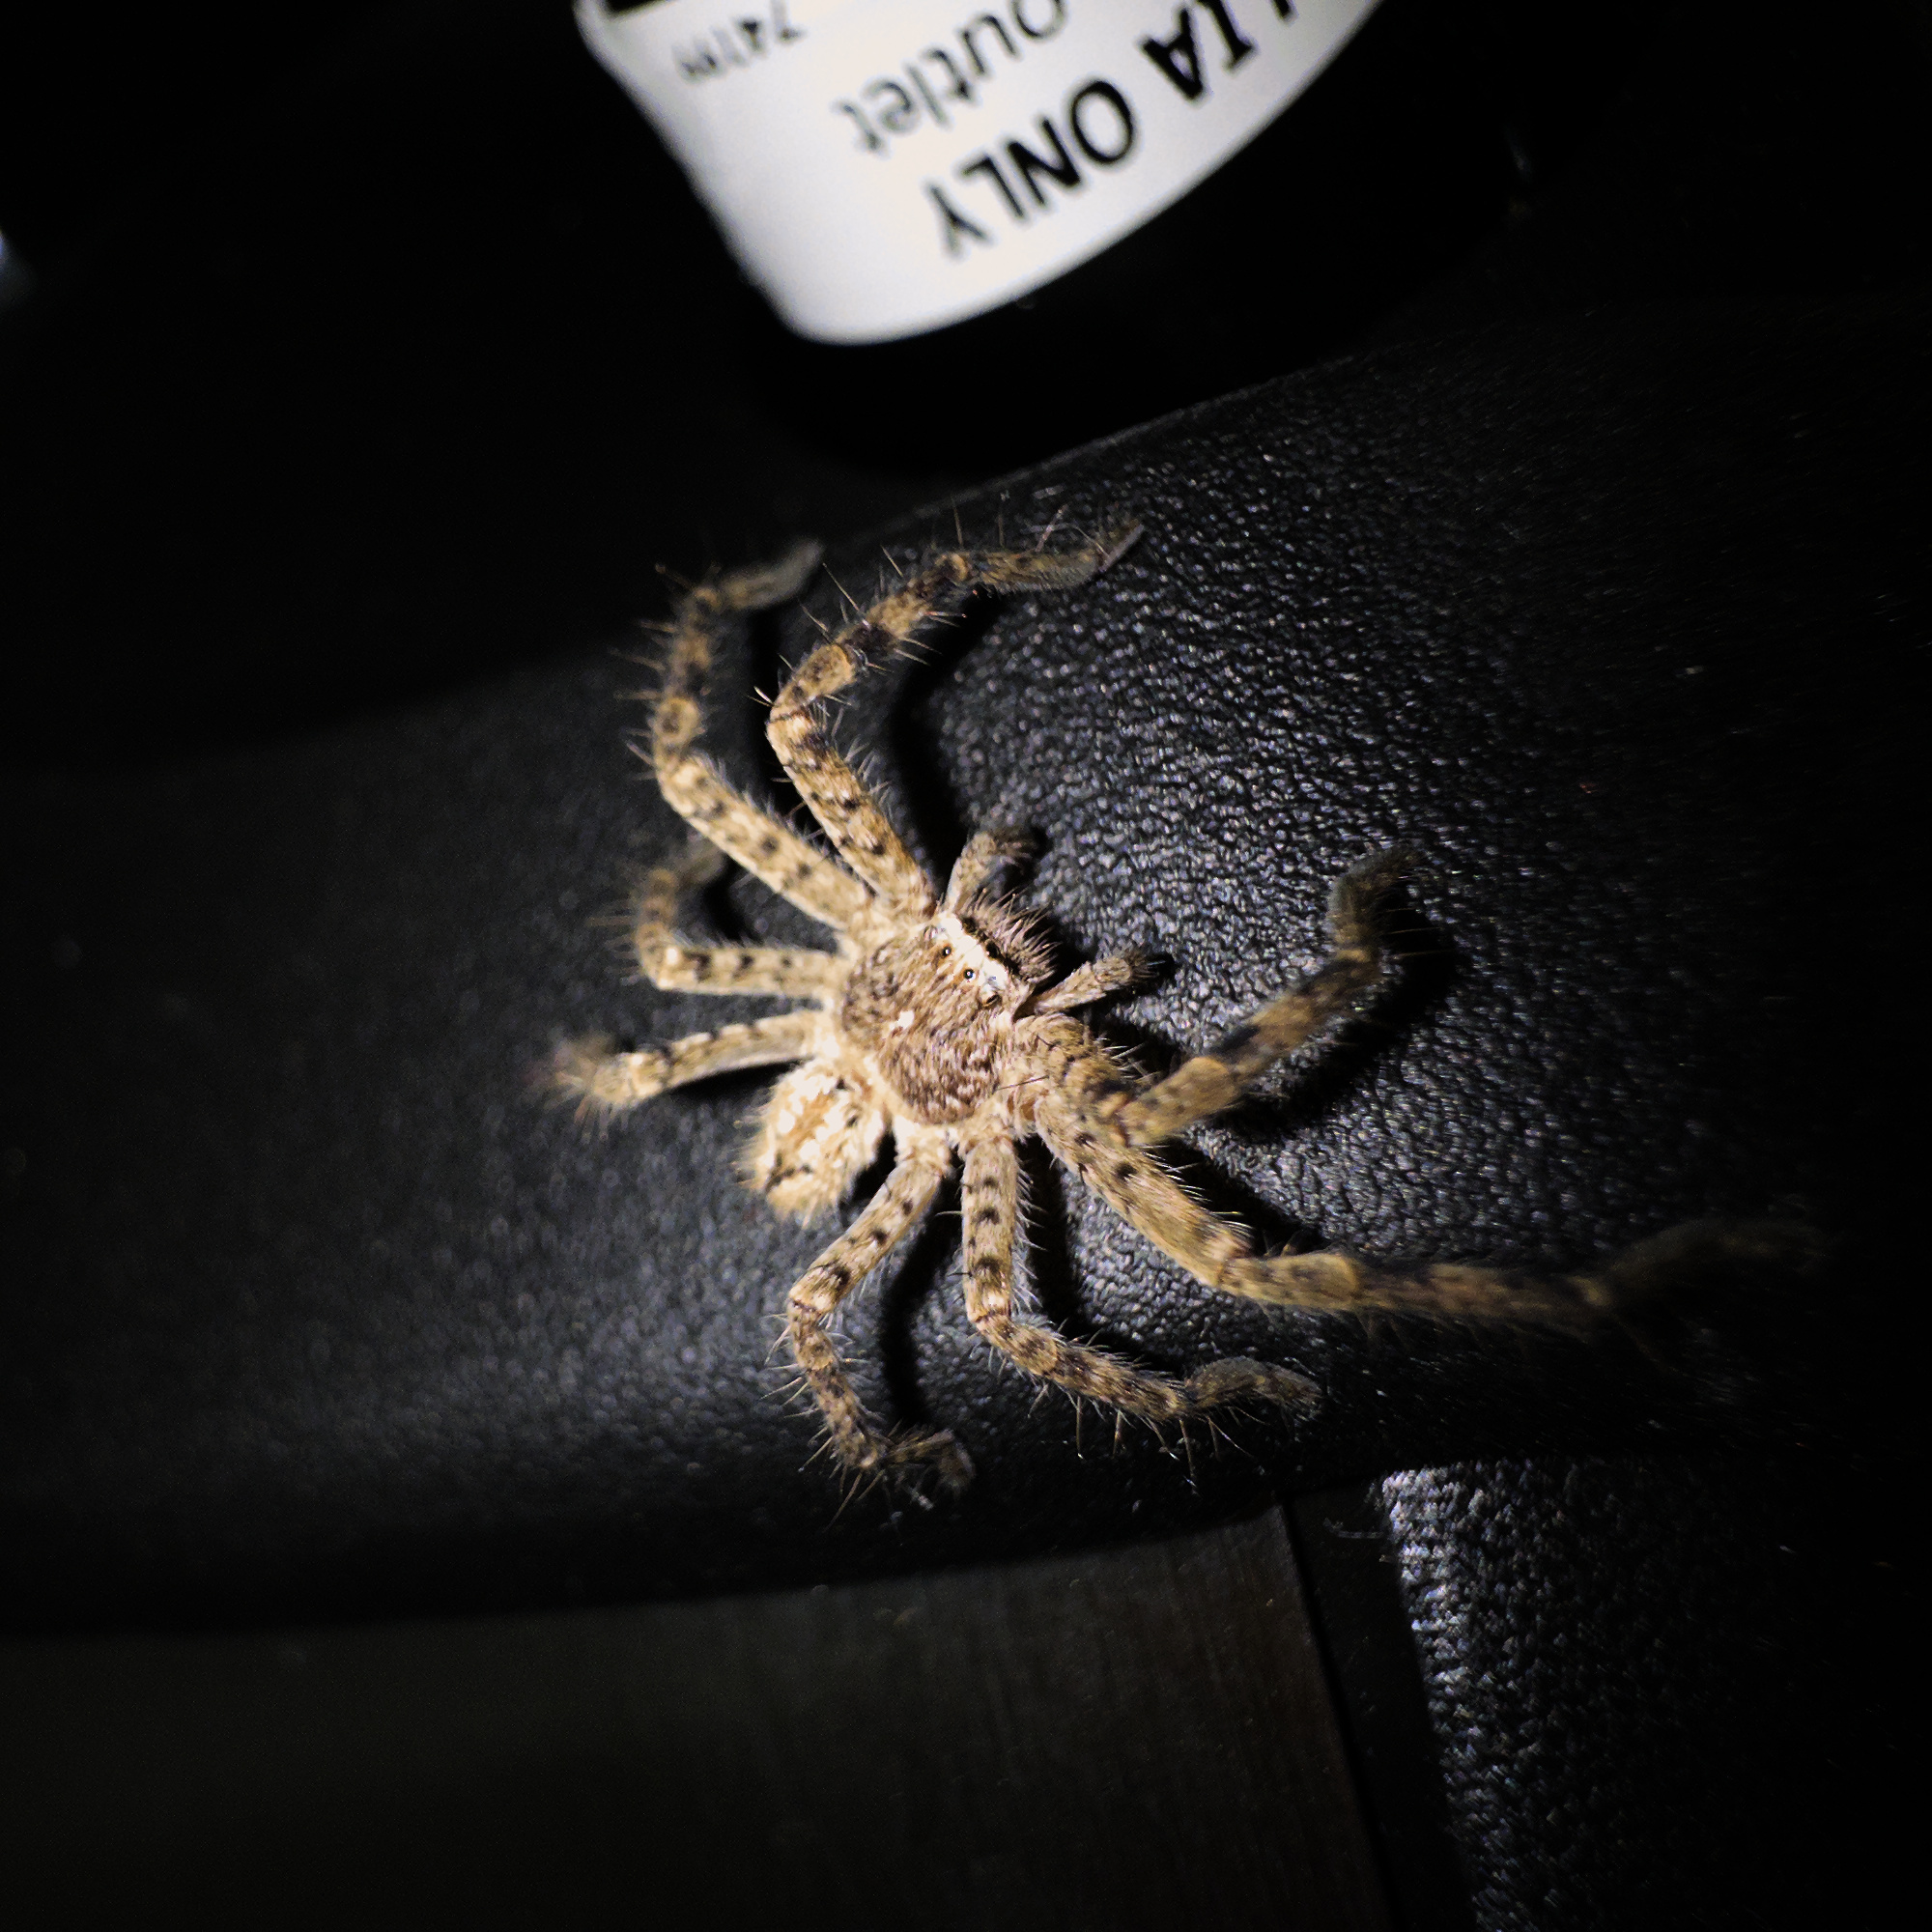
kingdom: Animalia
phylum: Arthropoda
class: Arachnida
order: Araneae
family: Sparassidae
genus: Isopedella
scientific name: Isopedella victorialis
